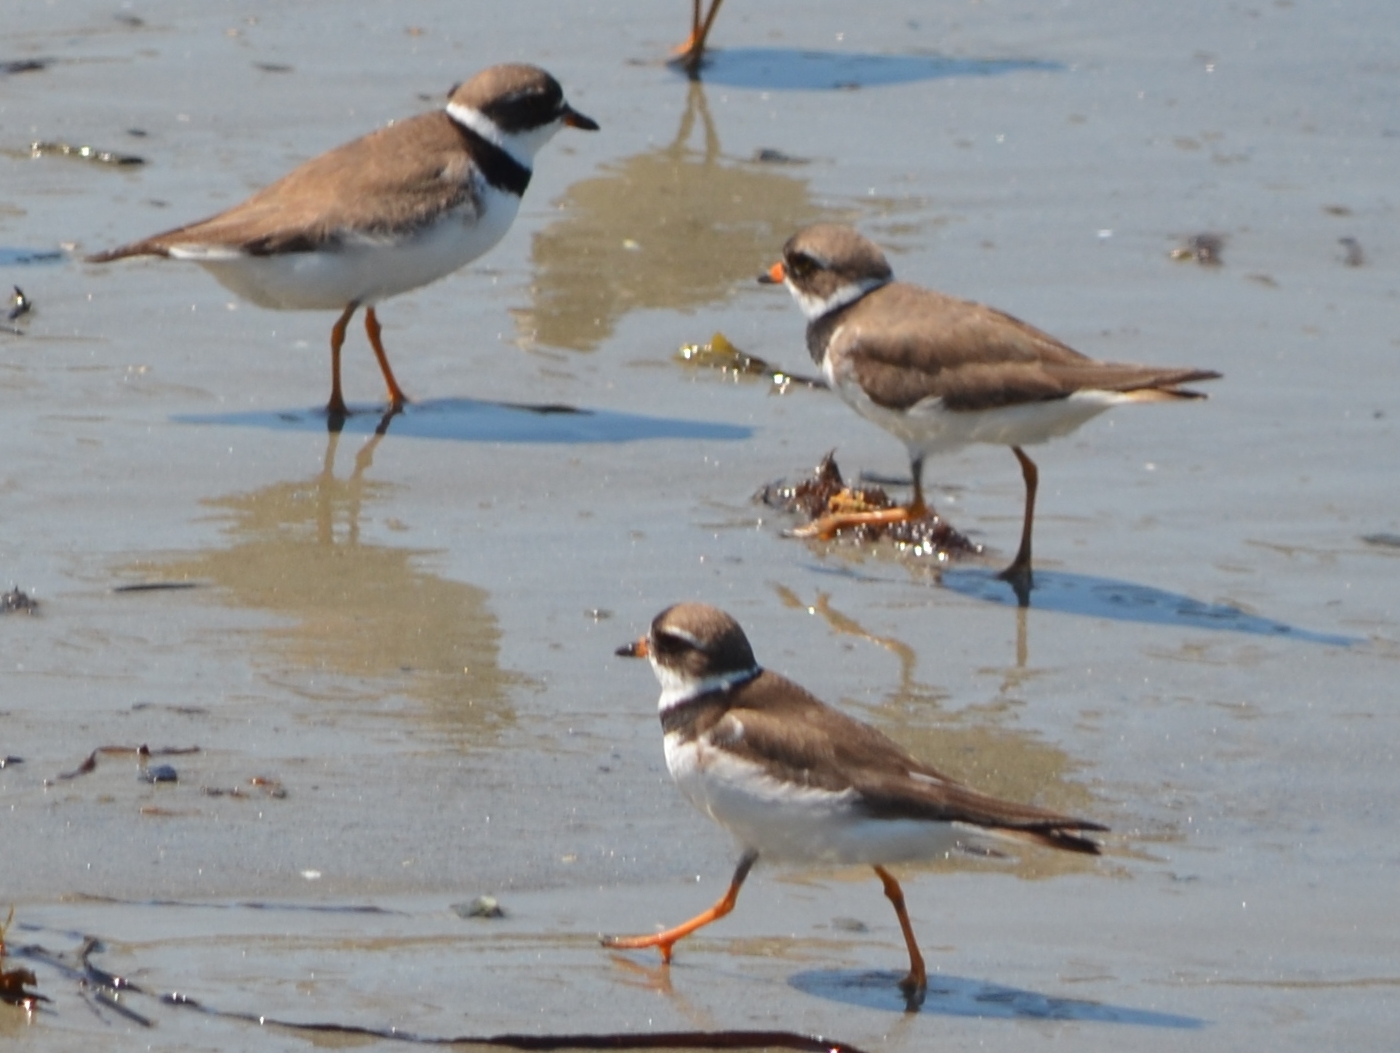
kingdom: Animalia
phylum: Chordata
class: Aves
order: Charadriiformes
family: Charadriidae
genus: Charadrius
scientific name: Charadrius semipalmatus
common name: Semipalmated plover
